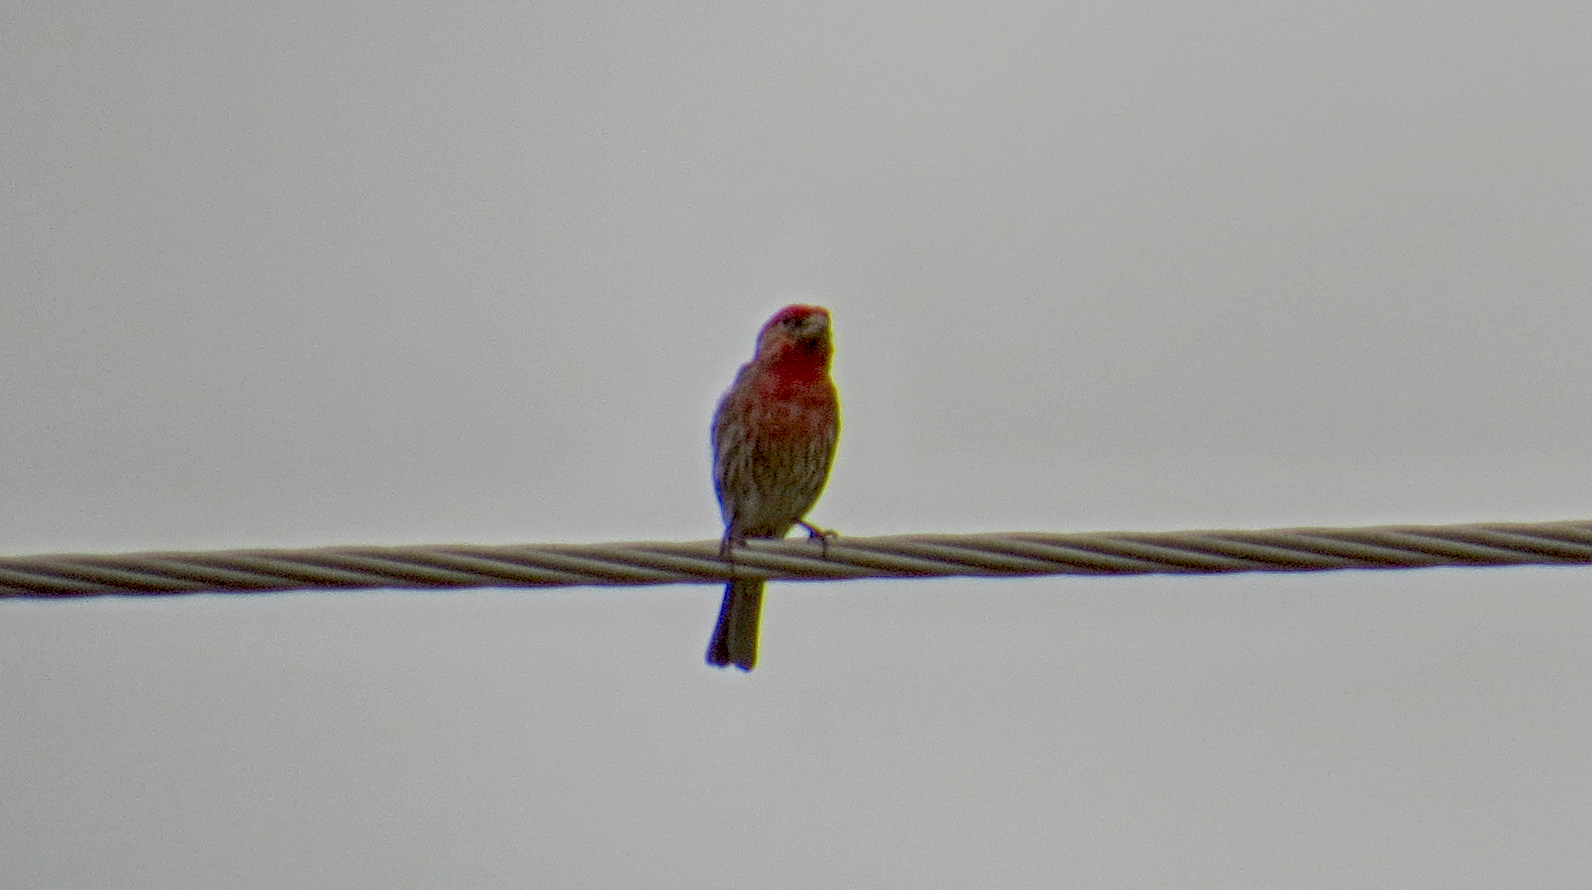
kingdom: Animalia
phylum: Chordata
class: Aves
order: Passeriformes
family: Fringillidae
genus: Haemorhous
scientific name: Haemorhous mexicanus
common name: House finch
